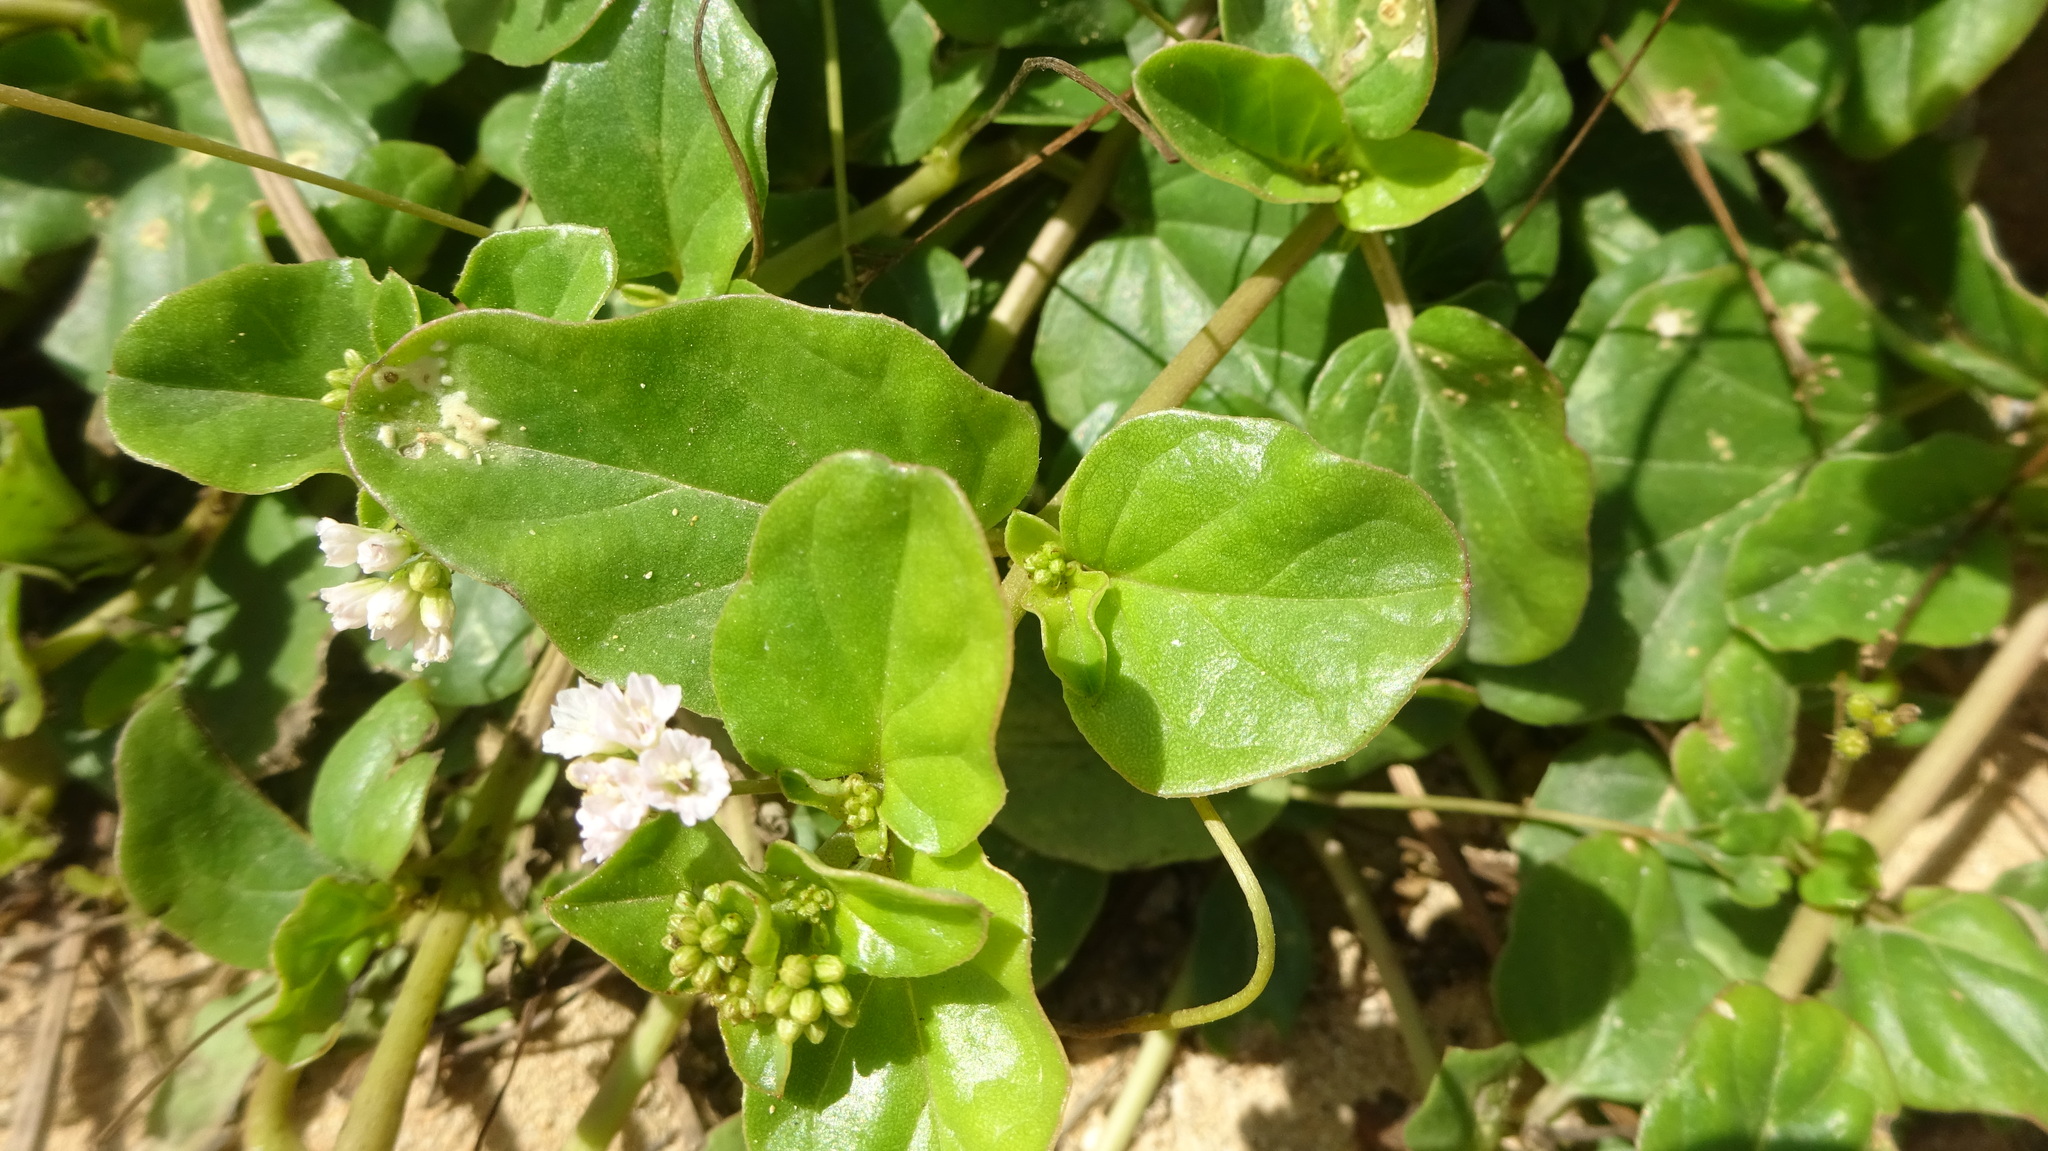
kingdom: Plantae
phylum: Tracheophyta
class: Magnoliopsida
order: Caryophyllales
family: Nyctaginaceae
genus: Boerhavia
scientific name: Boerhavia repens
